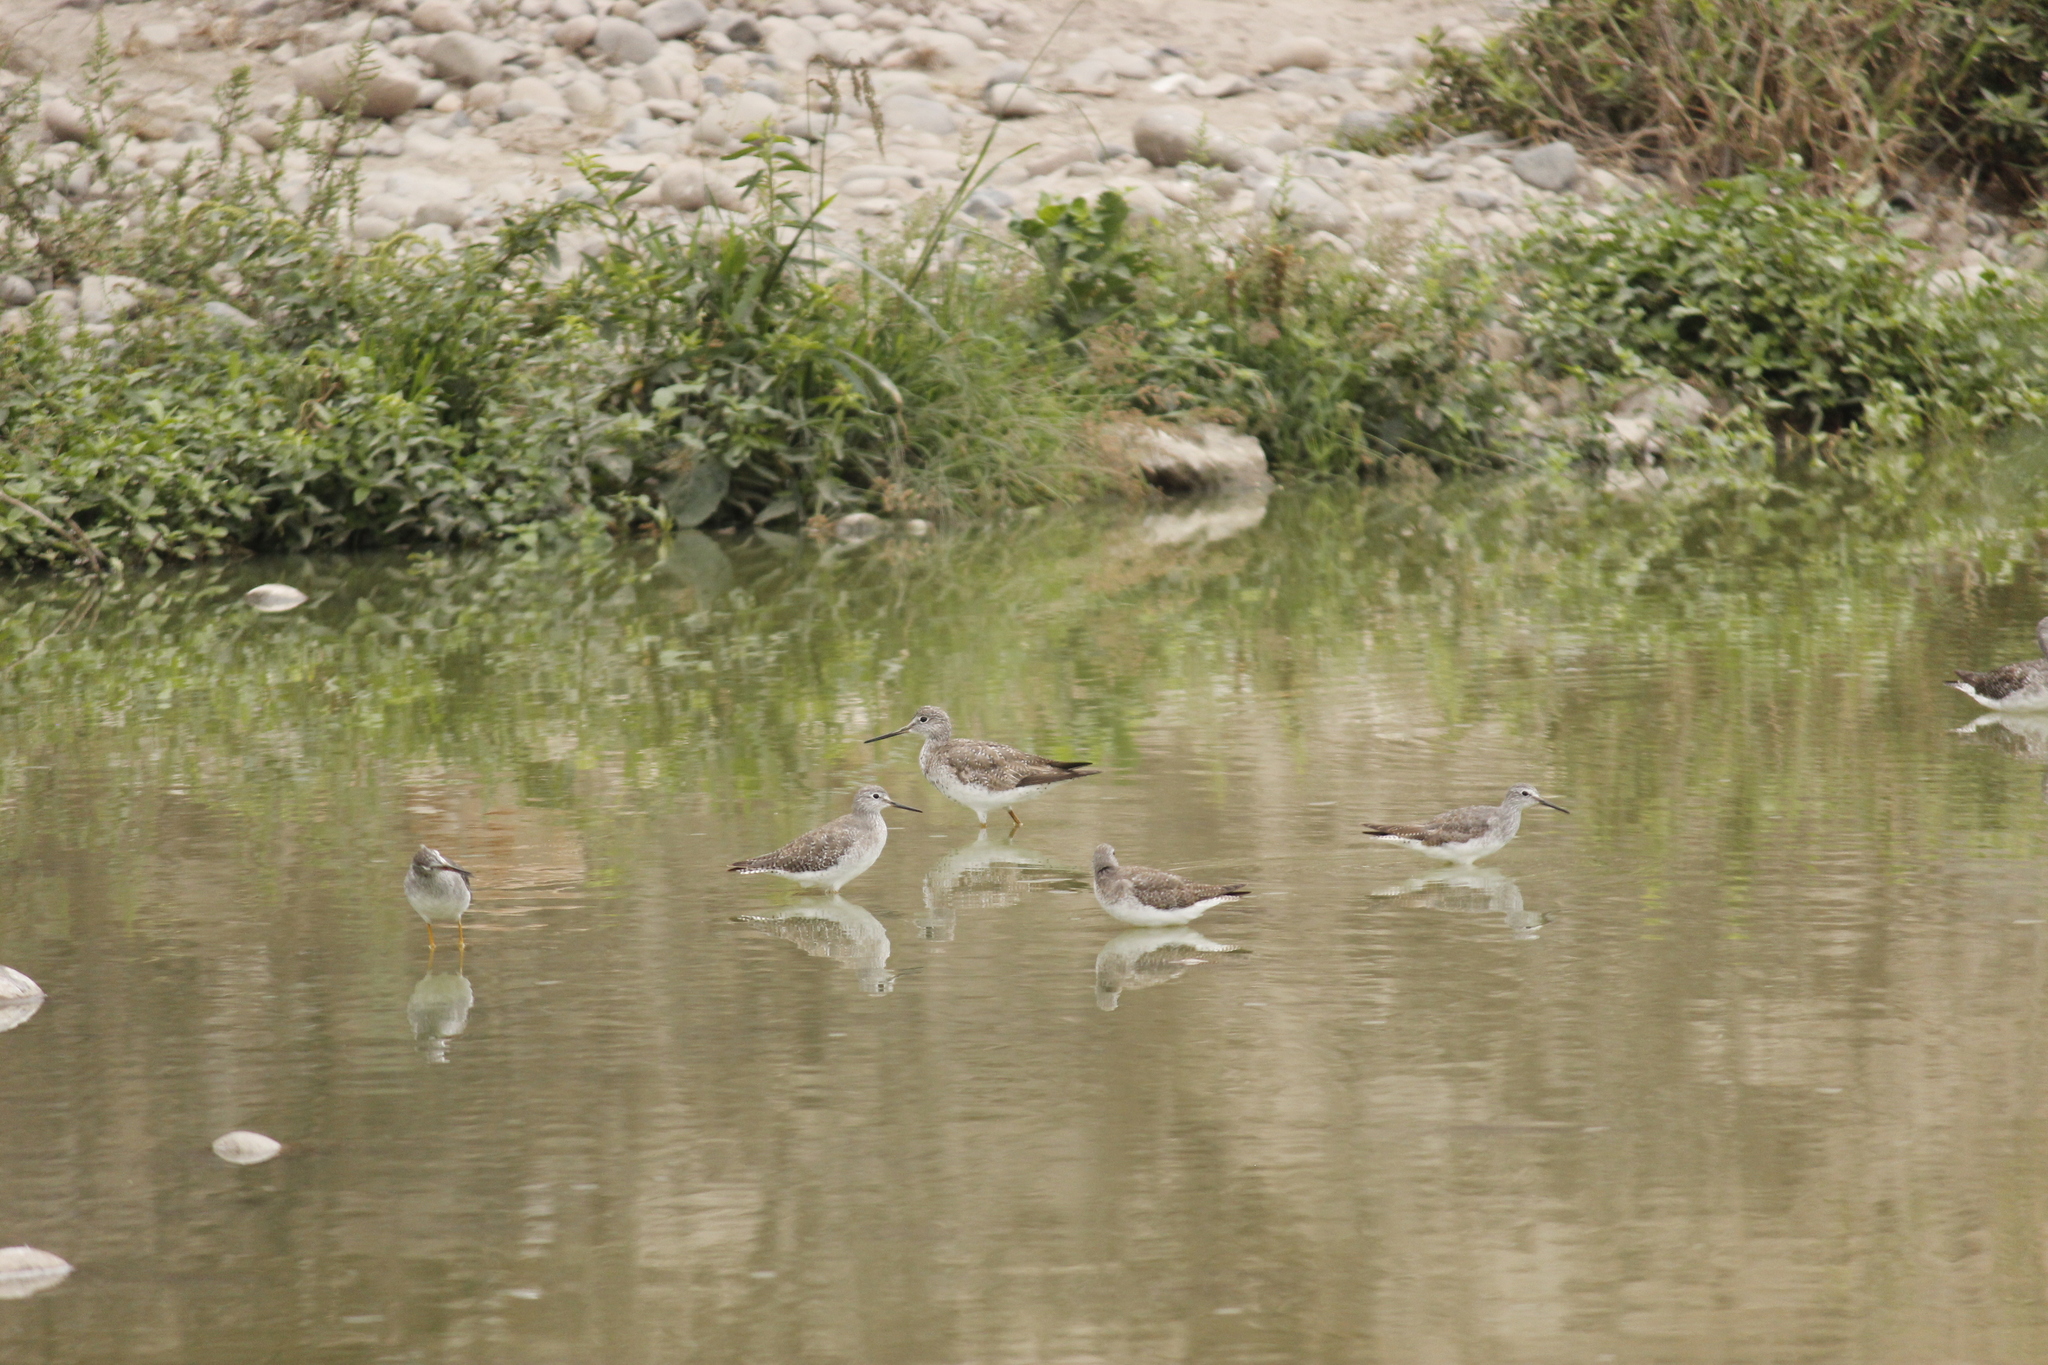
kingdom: Animalia
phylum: Chordata
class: Aves
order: Charadriiformes
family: Scolopacidae
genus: Tringa
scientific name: Tringa melanoleuca
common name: Greater yellowlegs
